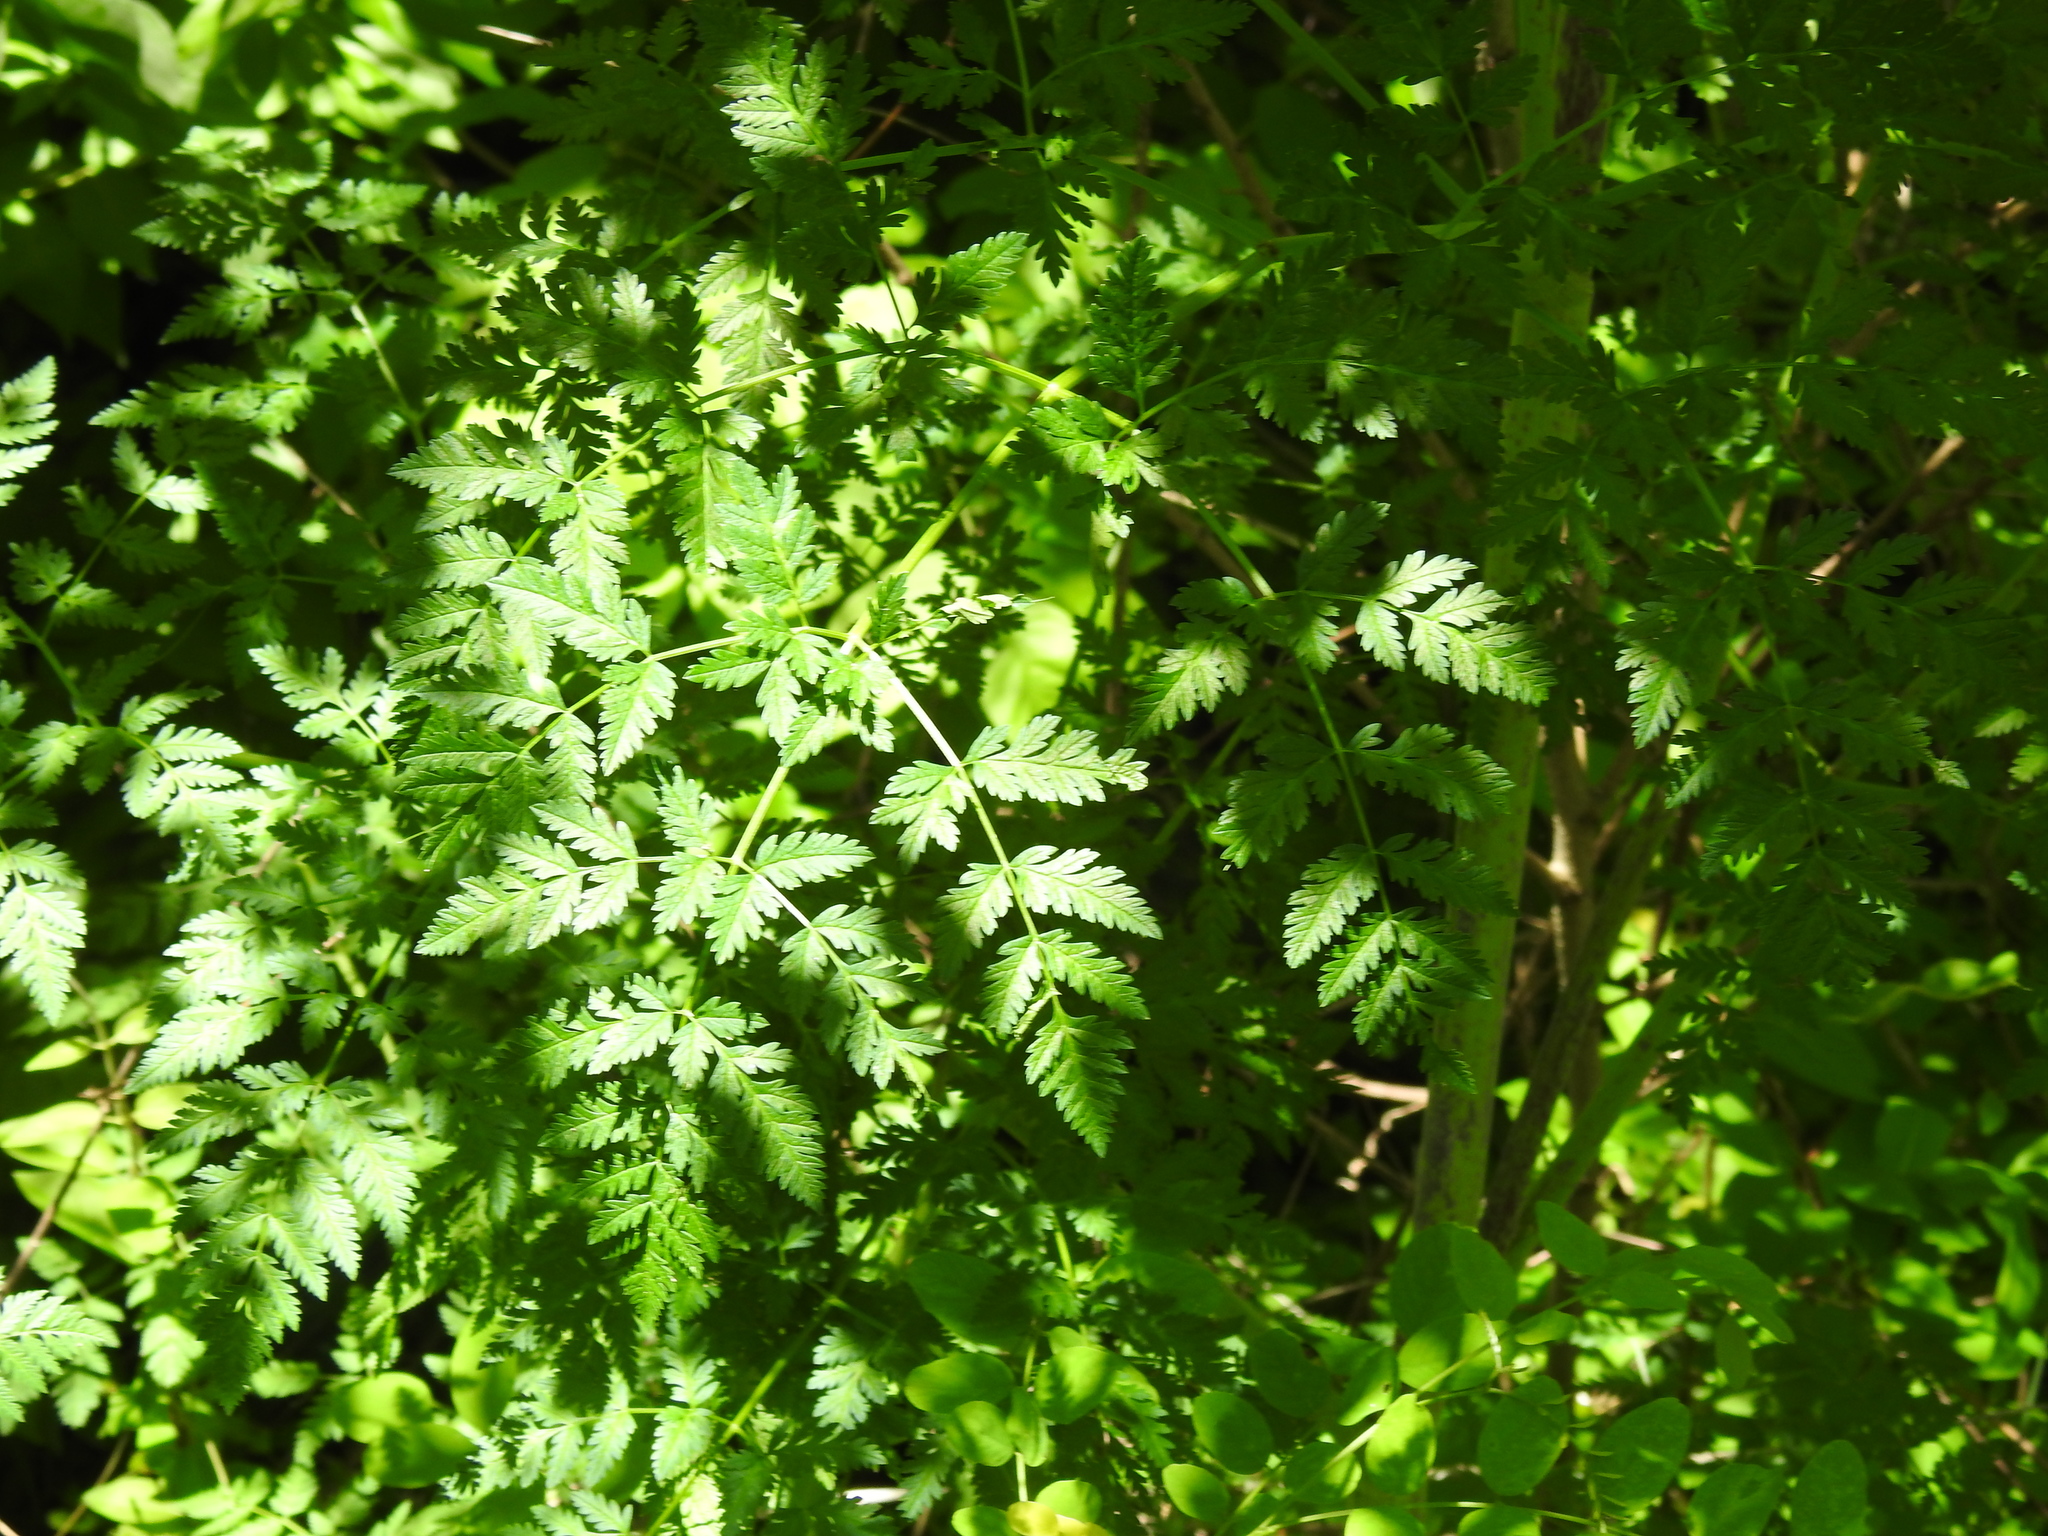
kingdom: Plantae
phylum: Tracheophyta
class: Magnoliopsida
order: Apiales
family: Apiaceae
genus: Conium
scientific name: Conium maculatum
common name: Hemlock
